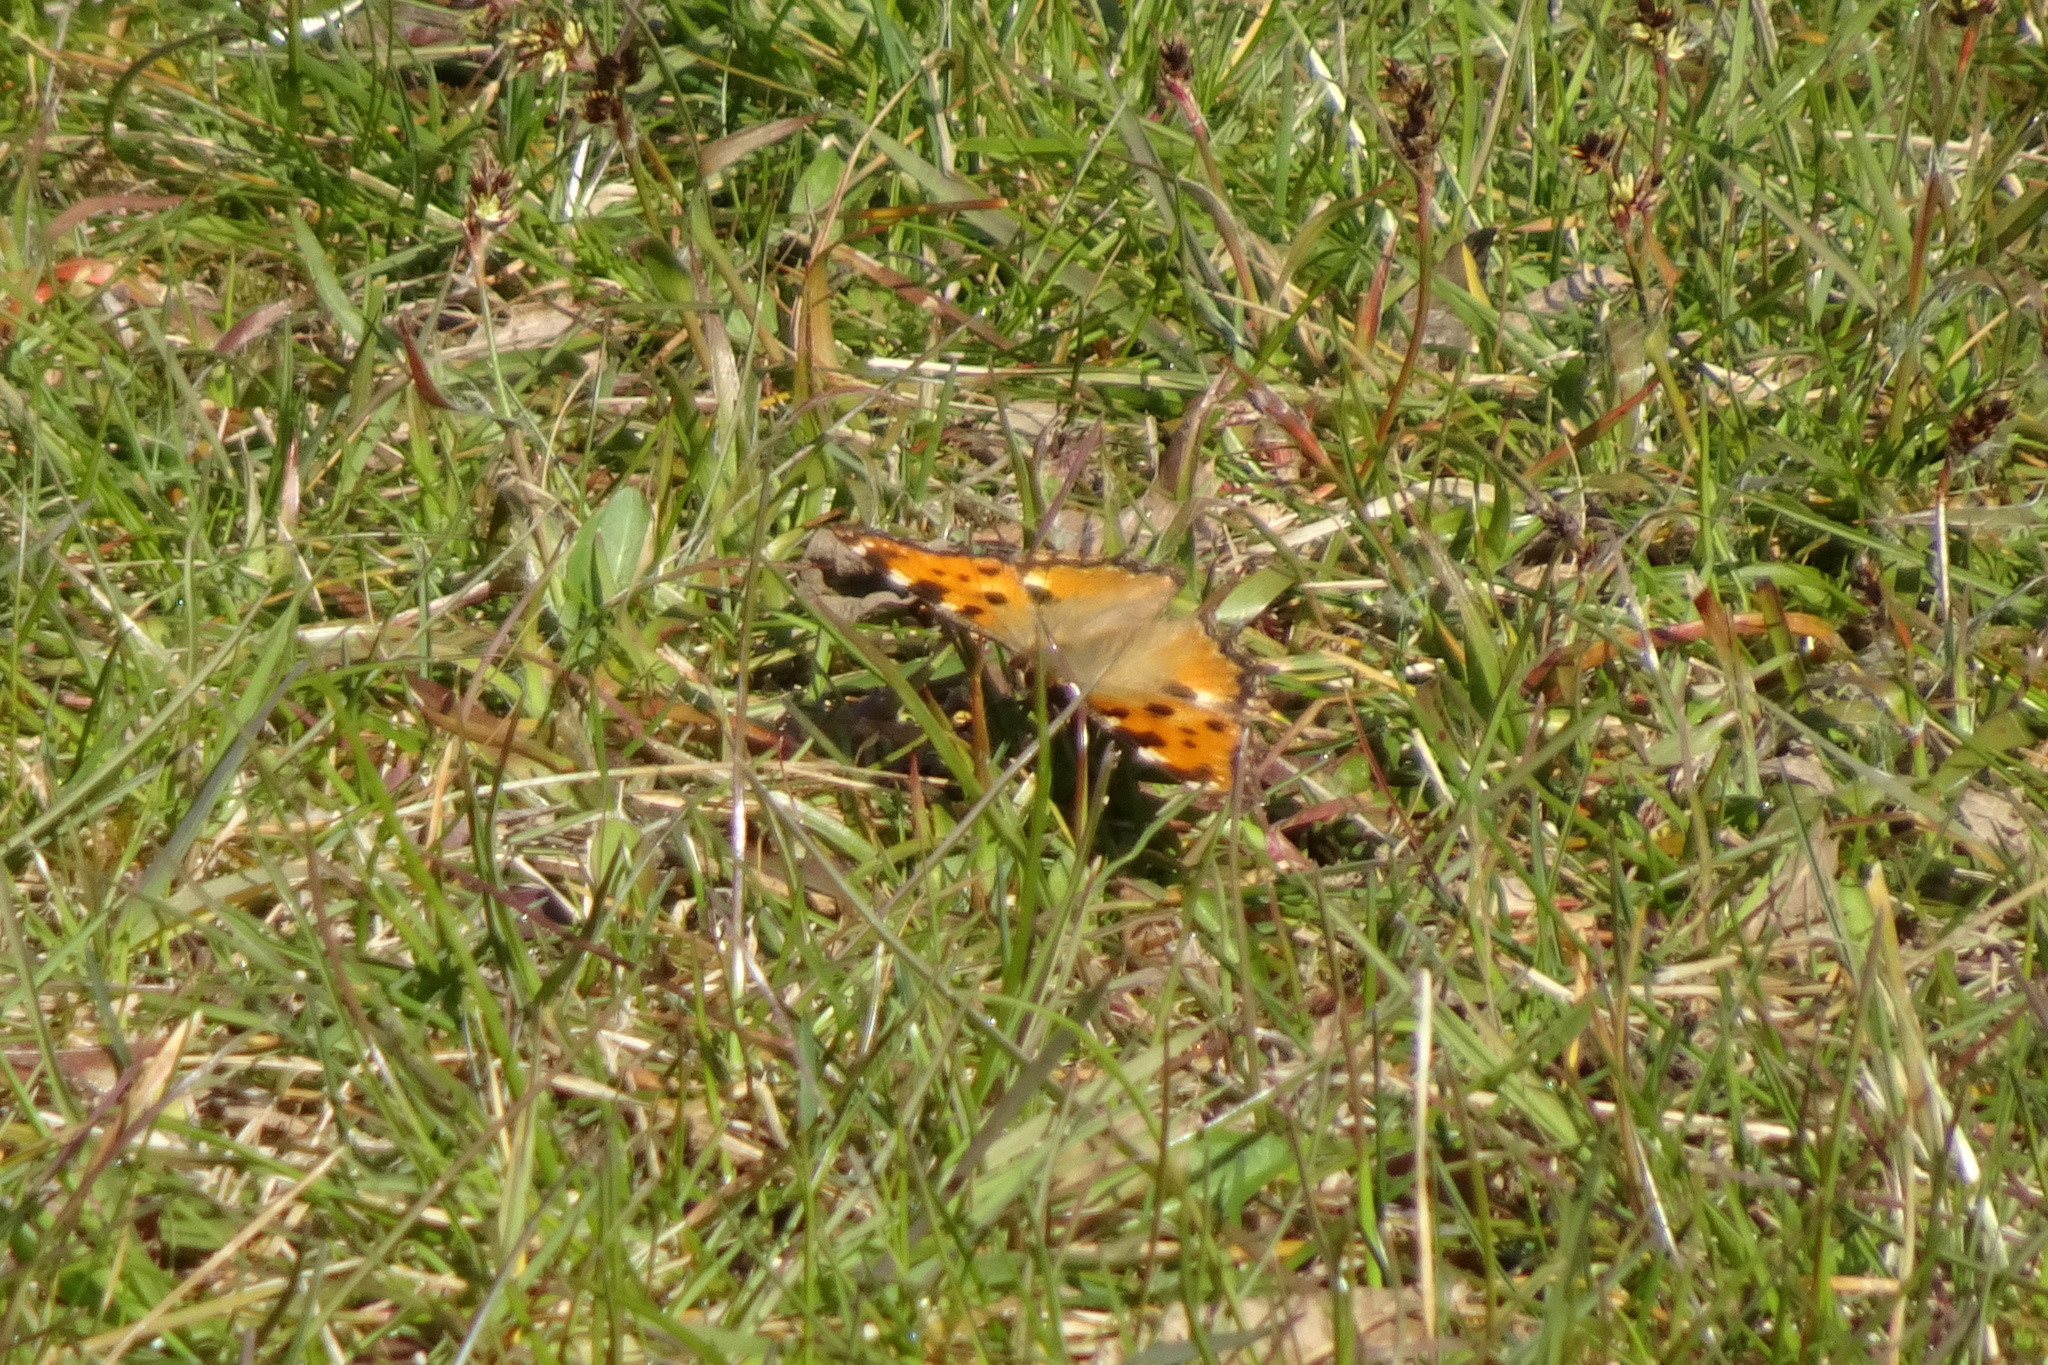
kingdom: Animalia
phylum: Arthropoda
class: Insecta
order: Lepidoptera
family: Nymphalidae
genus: Nymphalis
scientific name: Nymphalis polychloros
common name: Large tortoiseshell
